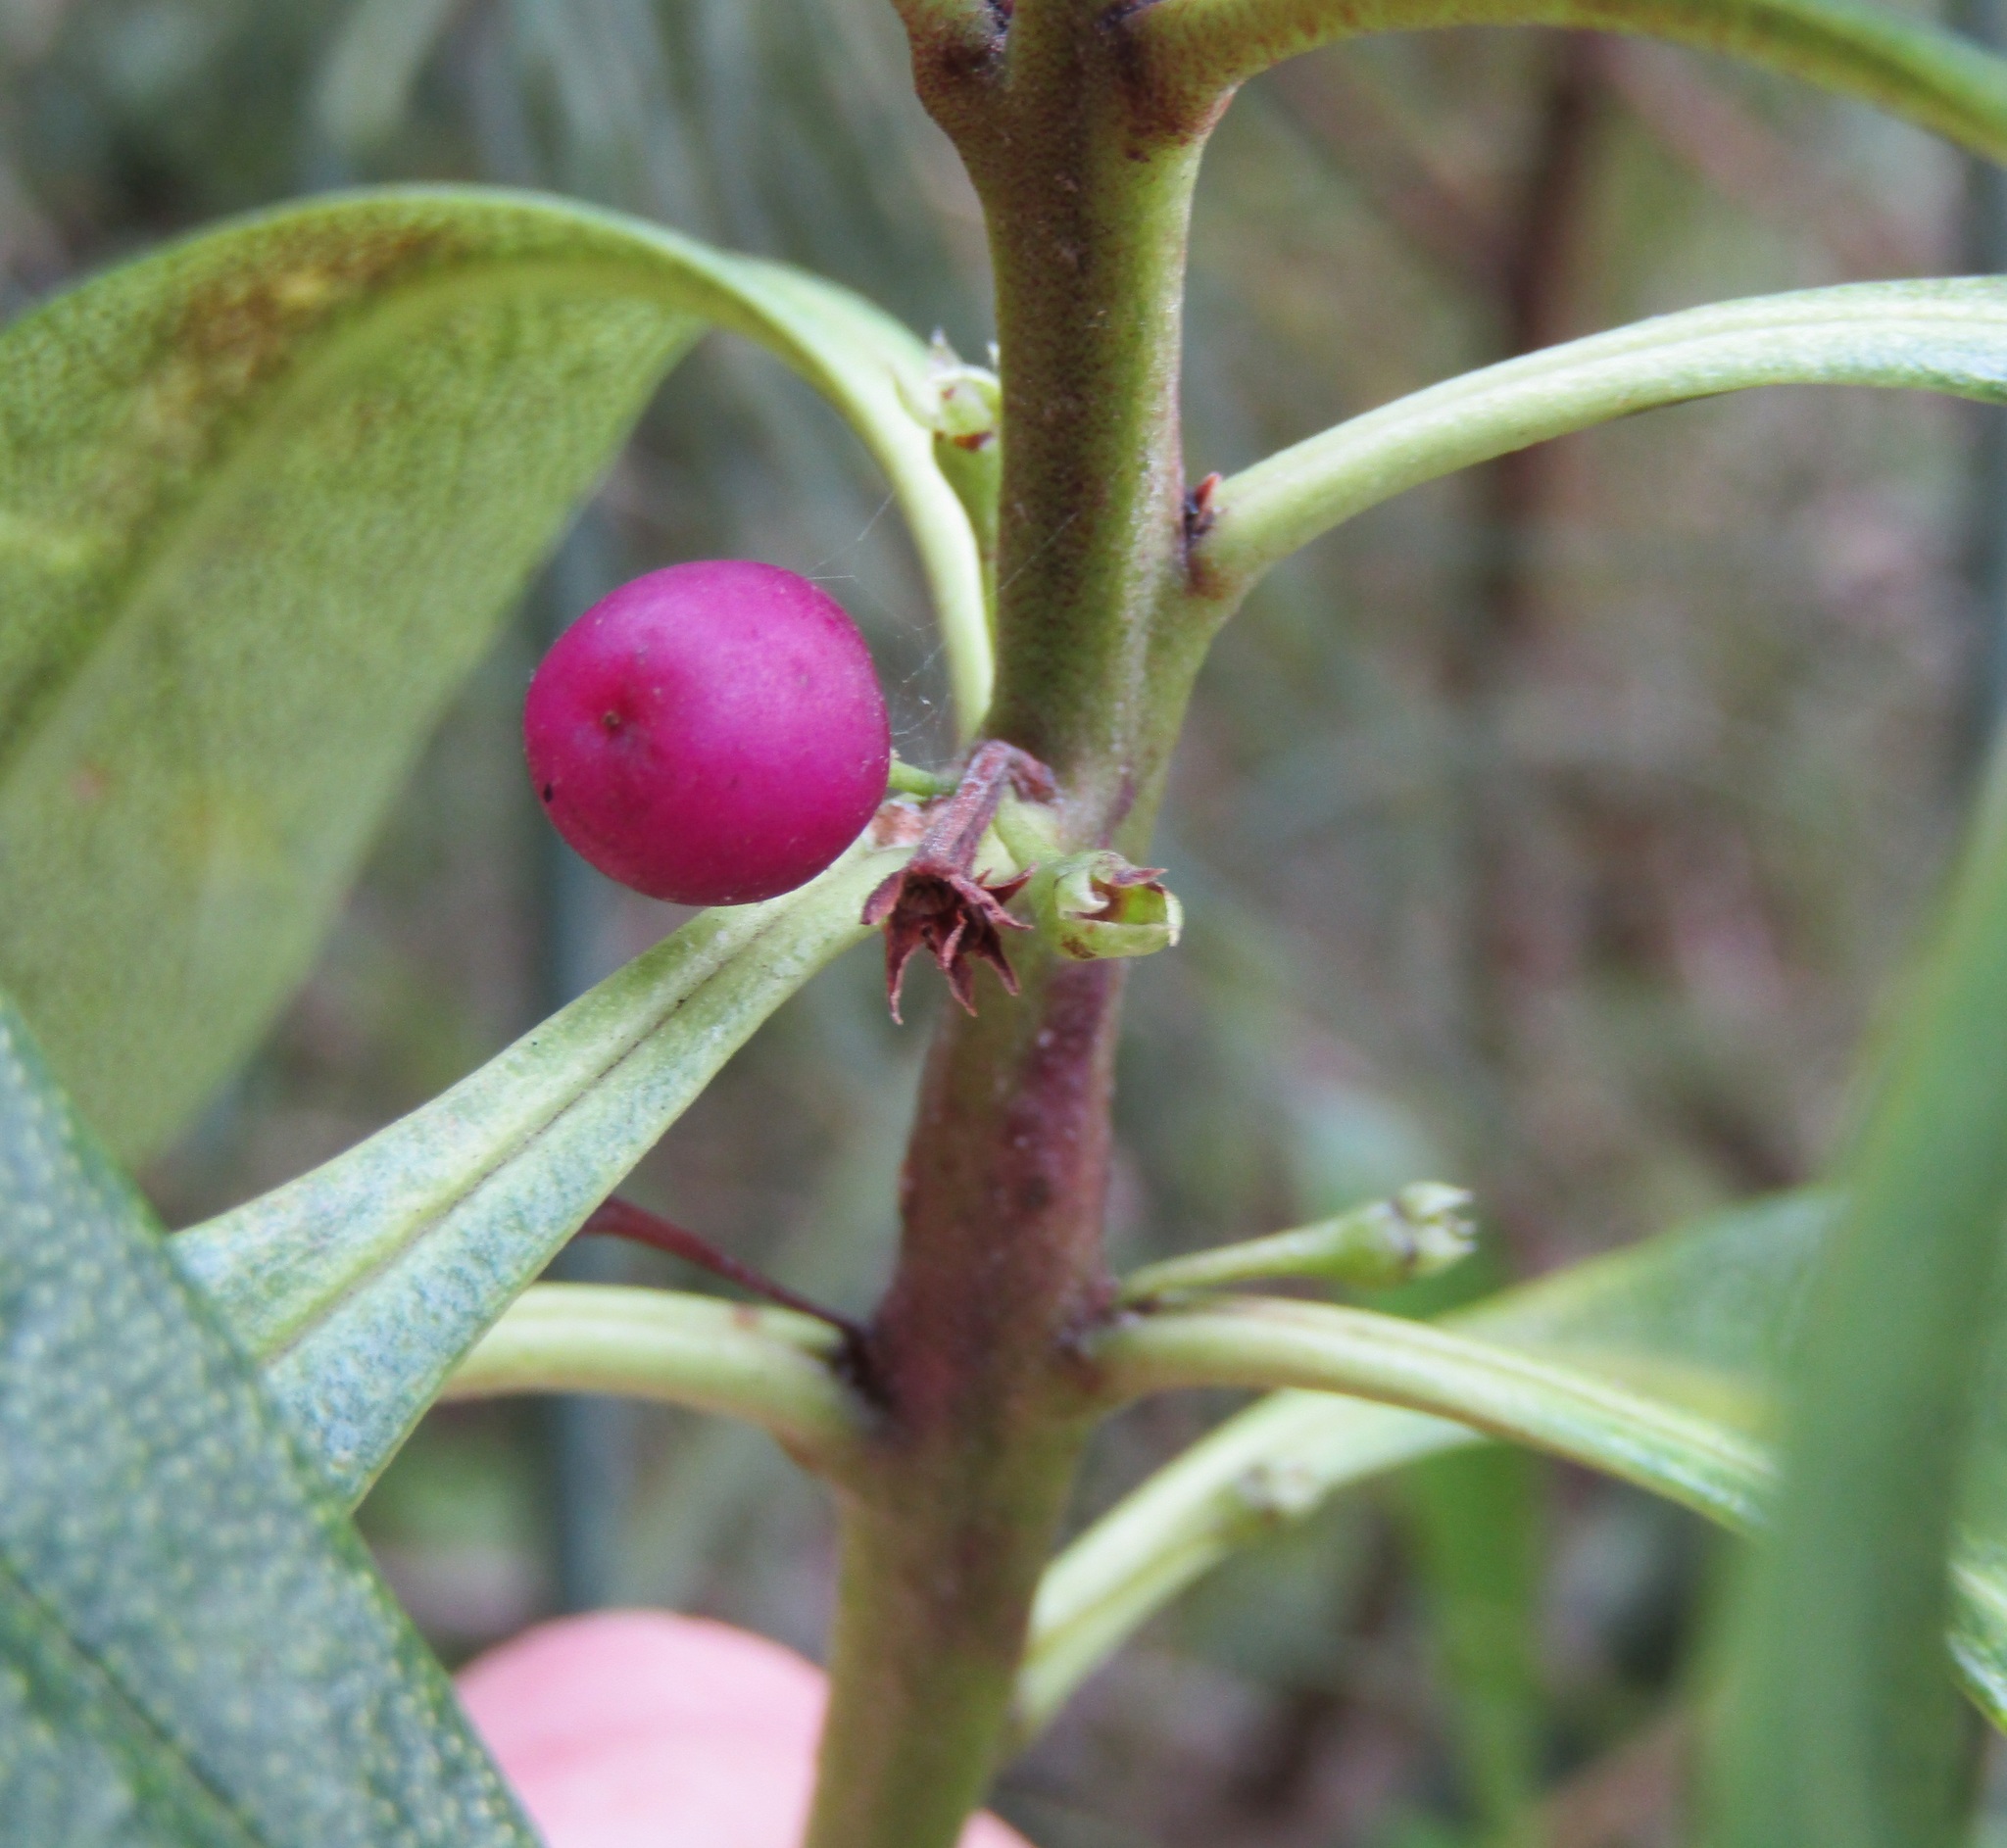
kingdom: Plantae
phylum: Tracheophyta
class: Magnoliopsida
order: Lamiales
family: Scrophulariaceae
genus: Myoporum
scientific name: Myoporum laetum
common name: Ngaio tree
